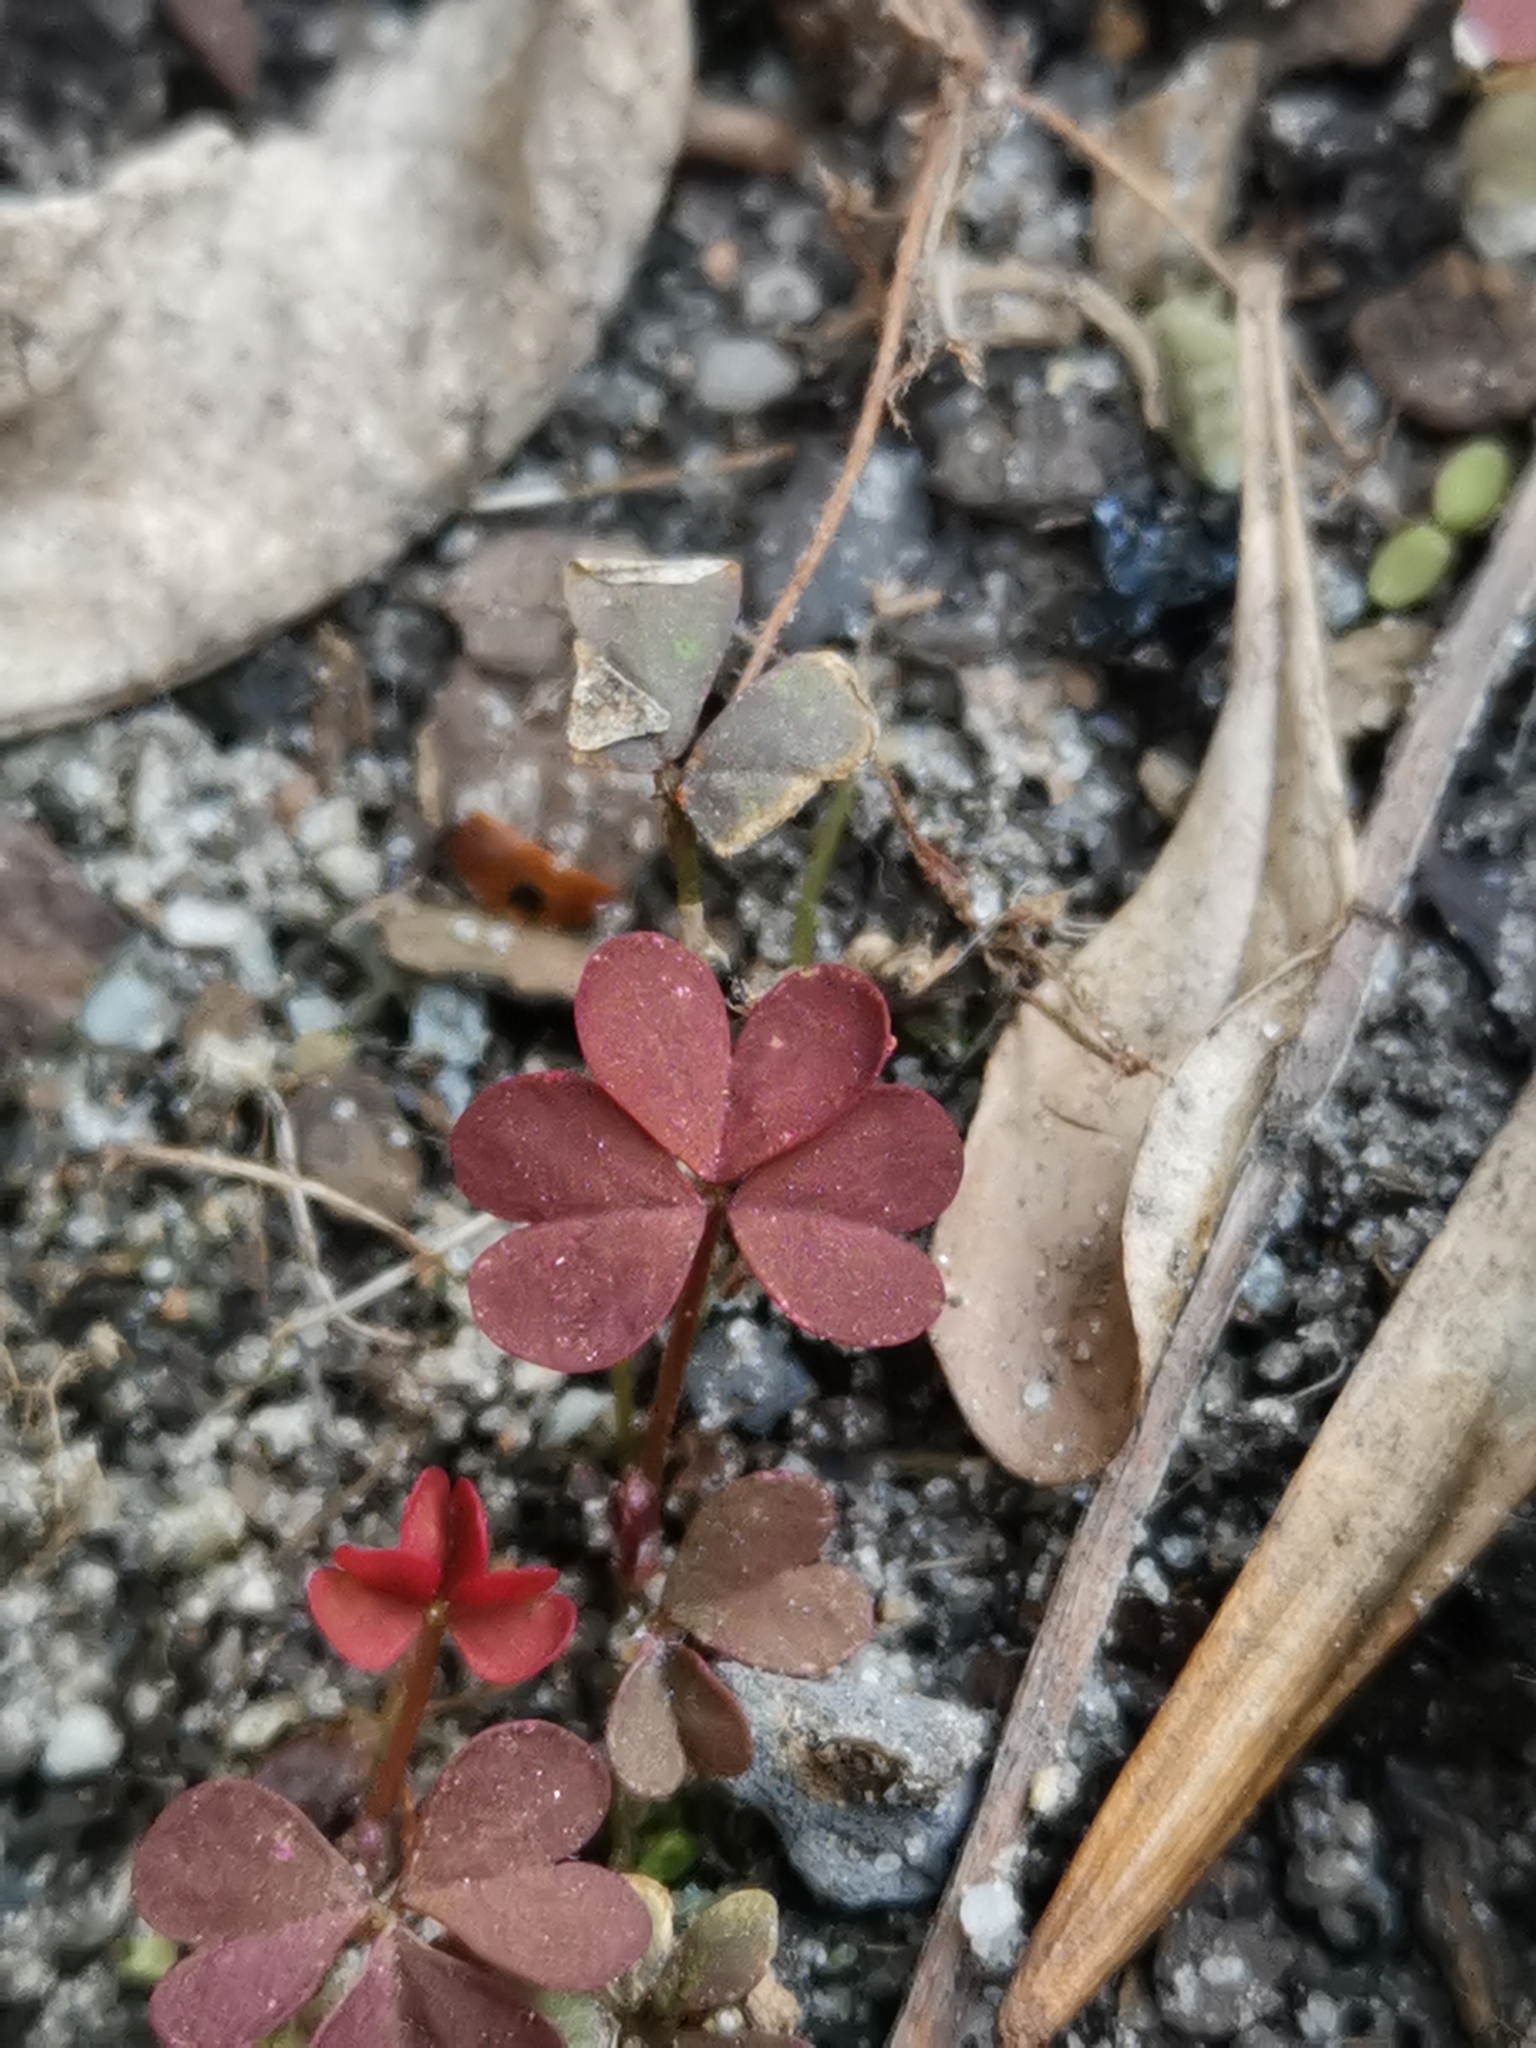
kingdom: Plantae
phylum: Tracheophyta
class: Magnoliopsida
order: Oxalidales
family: Oxalidaceae
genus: Oxalis
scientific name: Oxalis corniculata
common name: Procumbent yellow-sorrel
